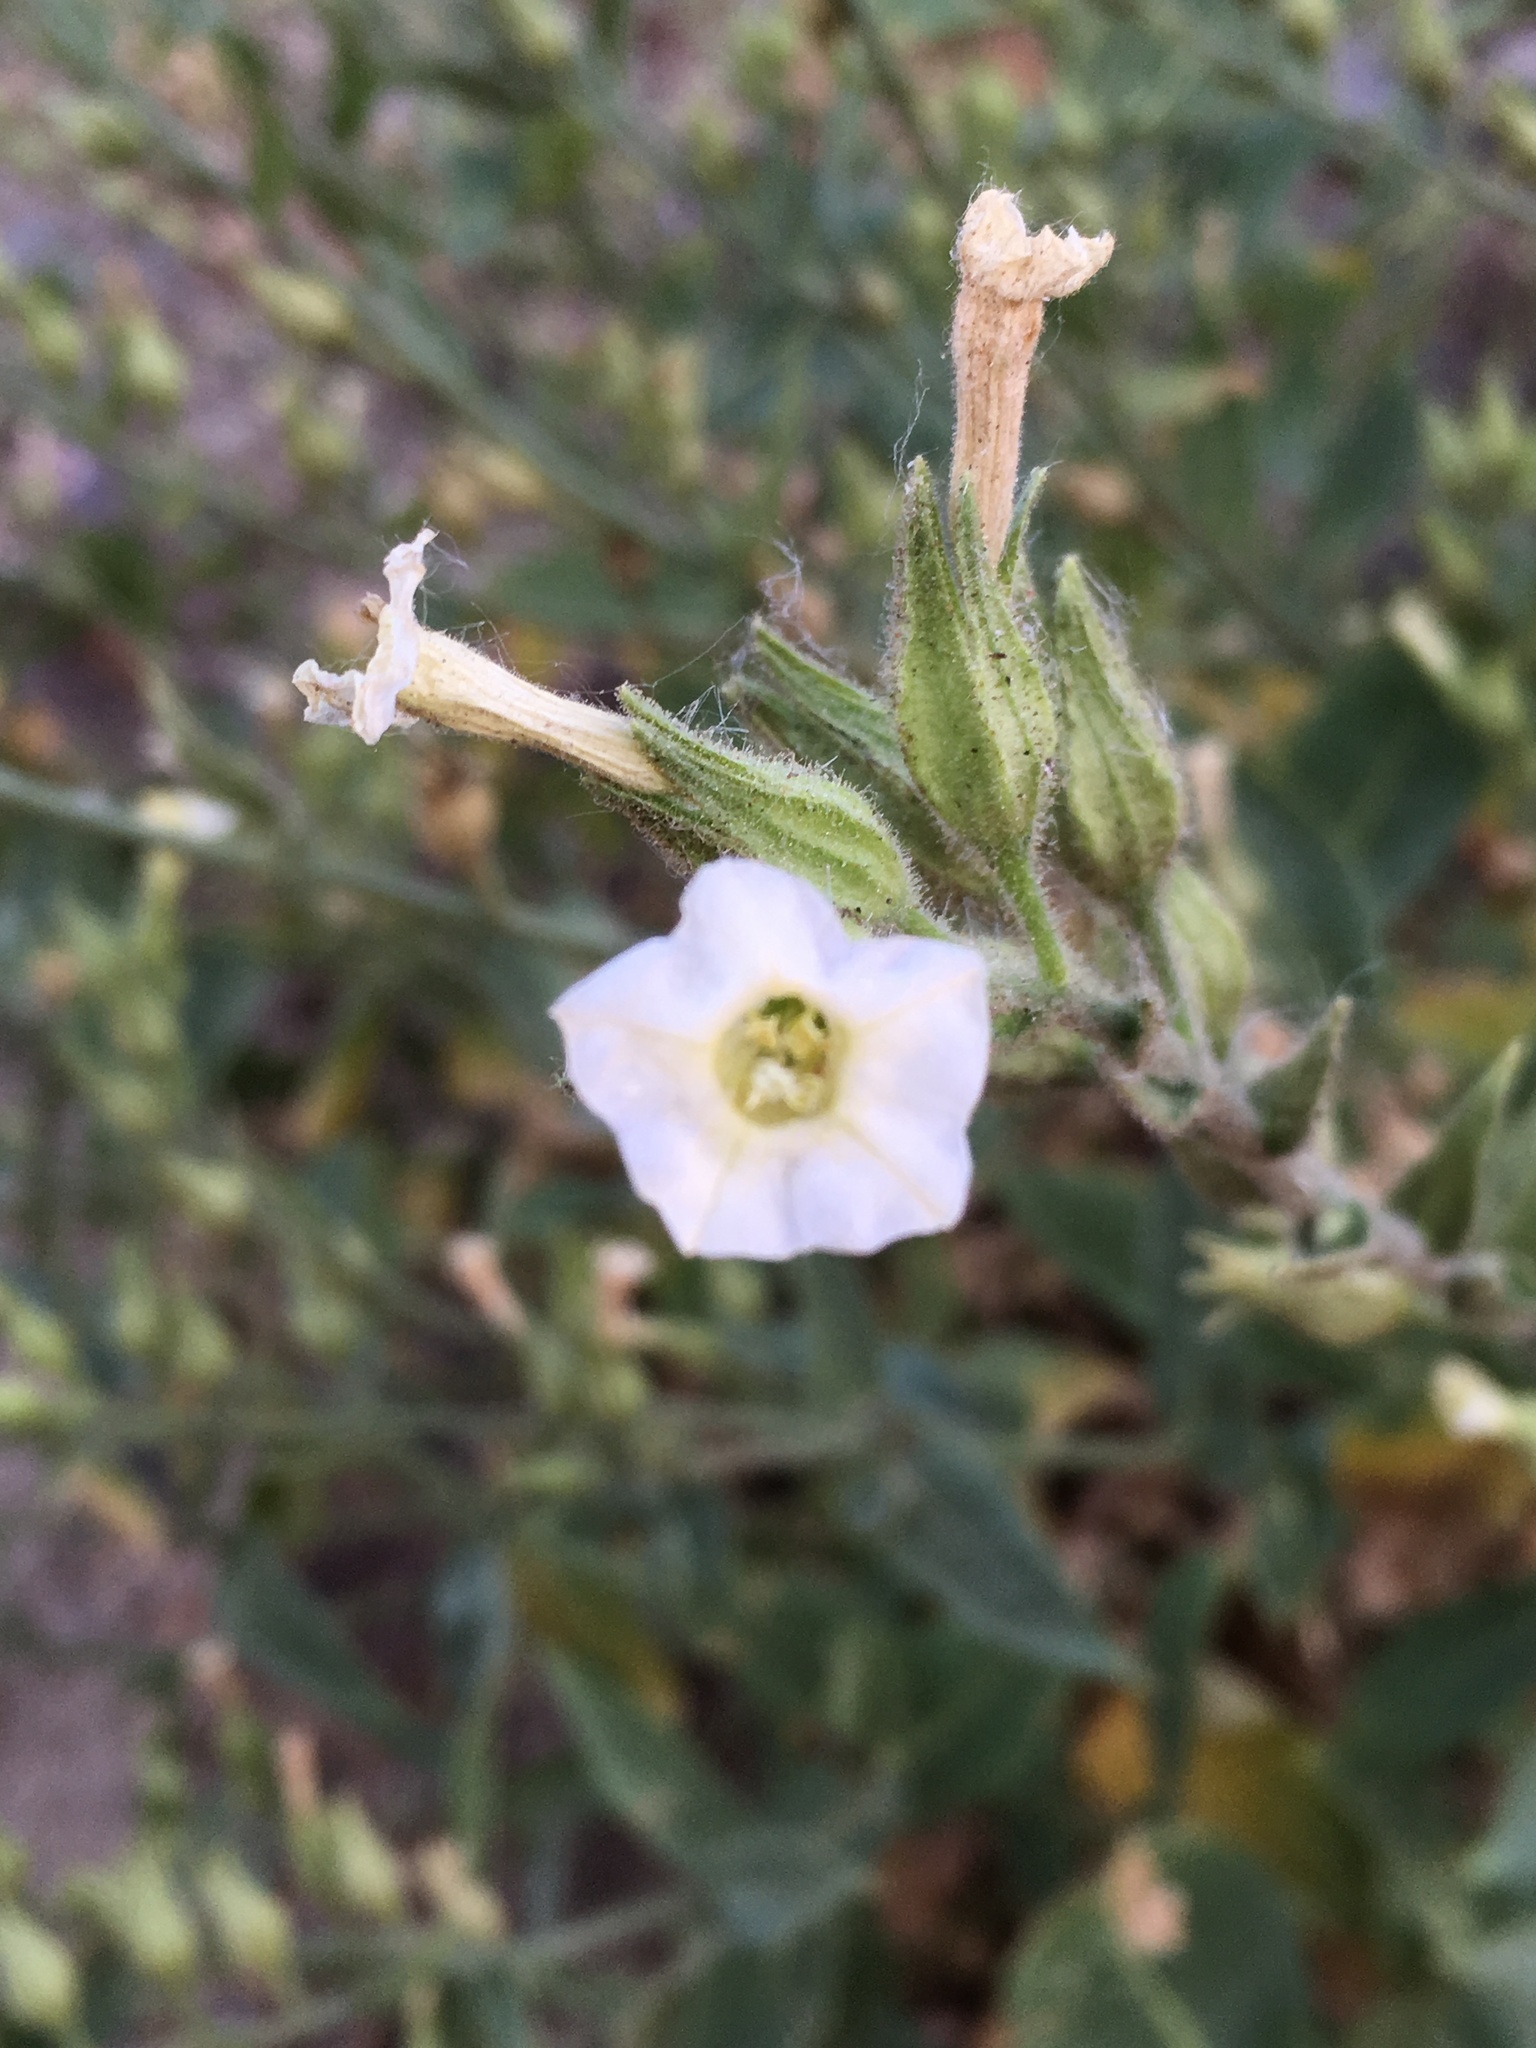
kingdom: Plantae
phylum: Tracheophyta
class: Magnoliopsida
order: Solanales
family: Solanaceae
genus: Nicotiana
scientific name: Nicotiana obtusifolia
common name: Desert tobacco
